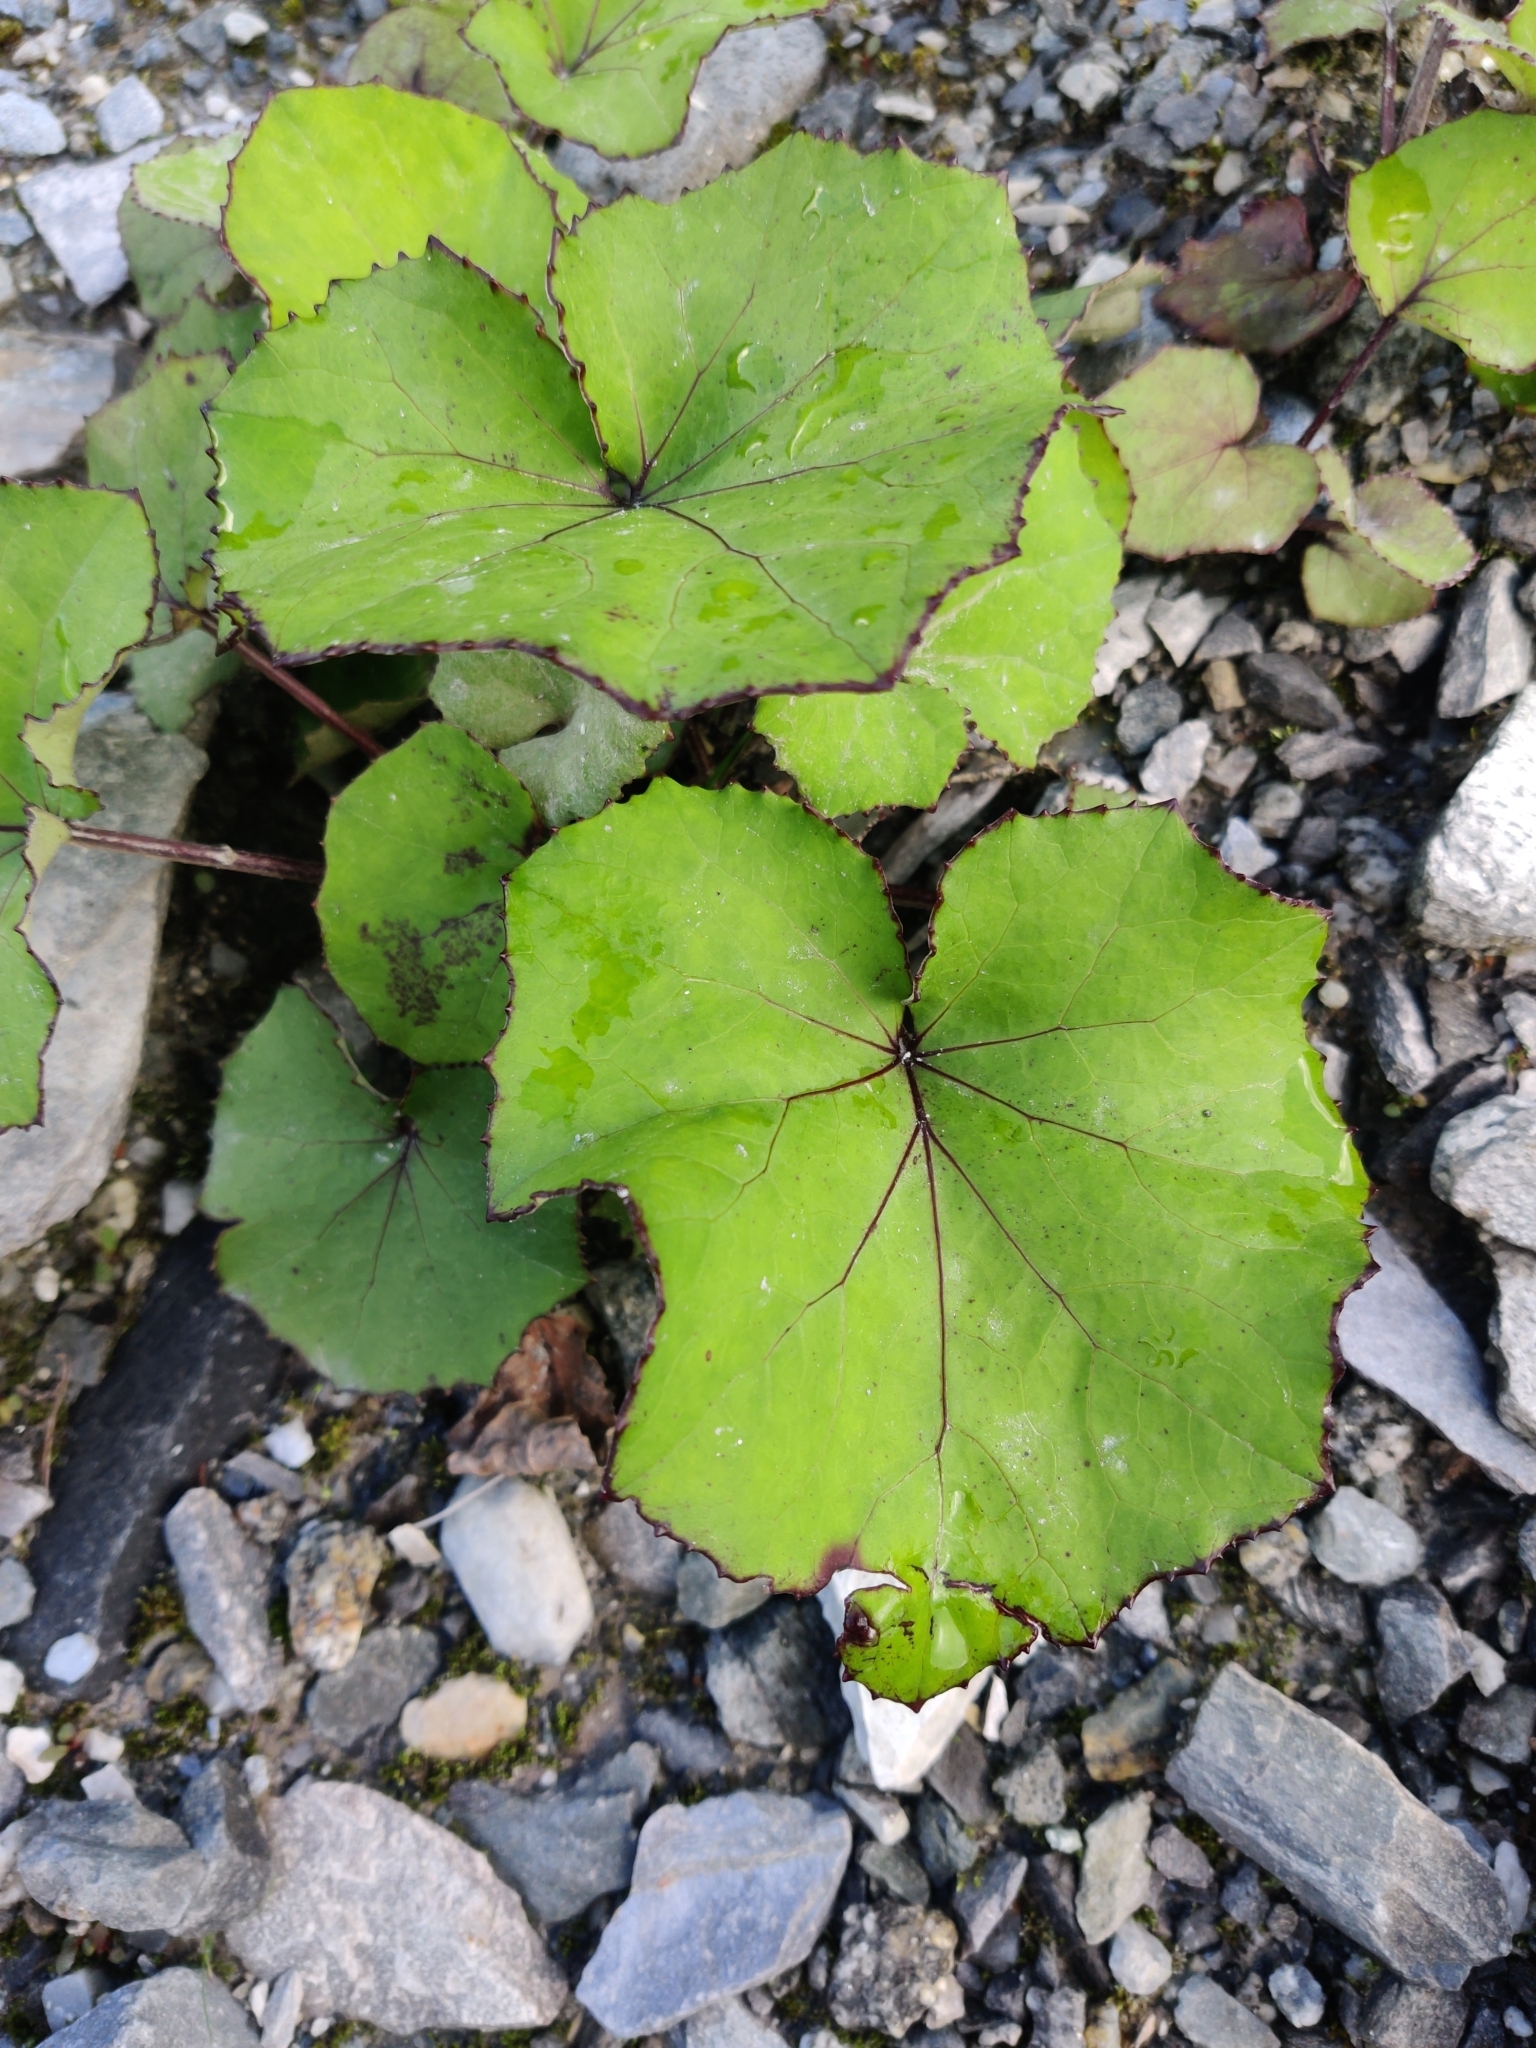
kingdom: Plantae
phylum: Tracheophyta
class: Magnoliopsida
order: Asterales
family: Asteraceae
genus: Tussilago
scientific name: Tussilago farfara
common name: Coltsfoot
